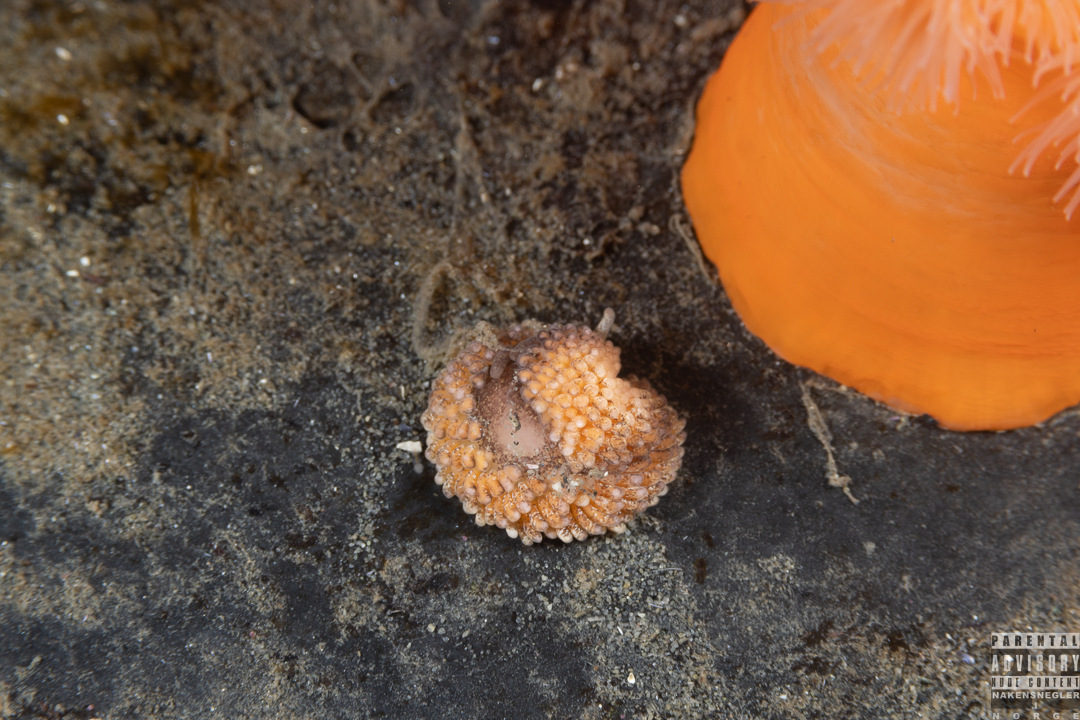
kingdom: Animalia
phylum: Mollusca
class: Gastropoda
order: Nudibranchia
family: Aeolidiidae
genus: Aeolidia
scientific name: Aeolidia papillosa
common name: Common grey sea slug
